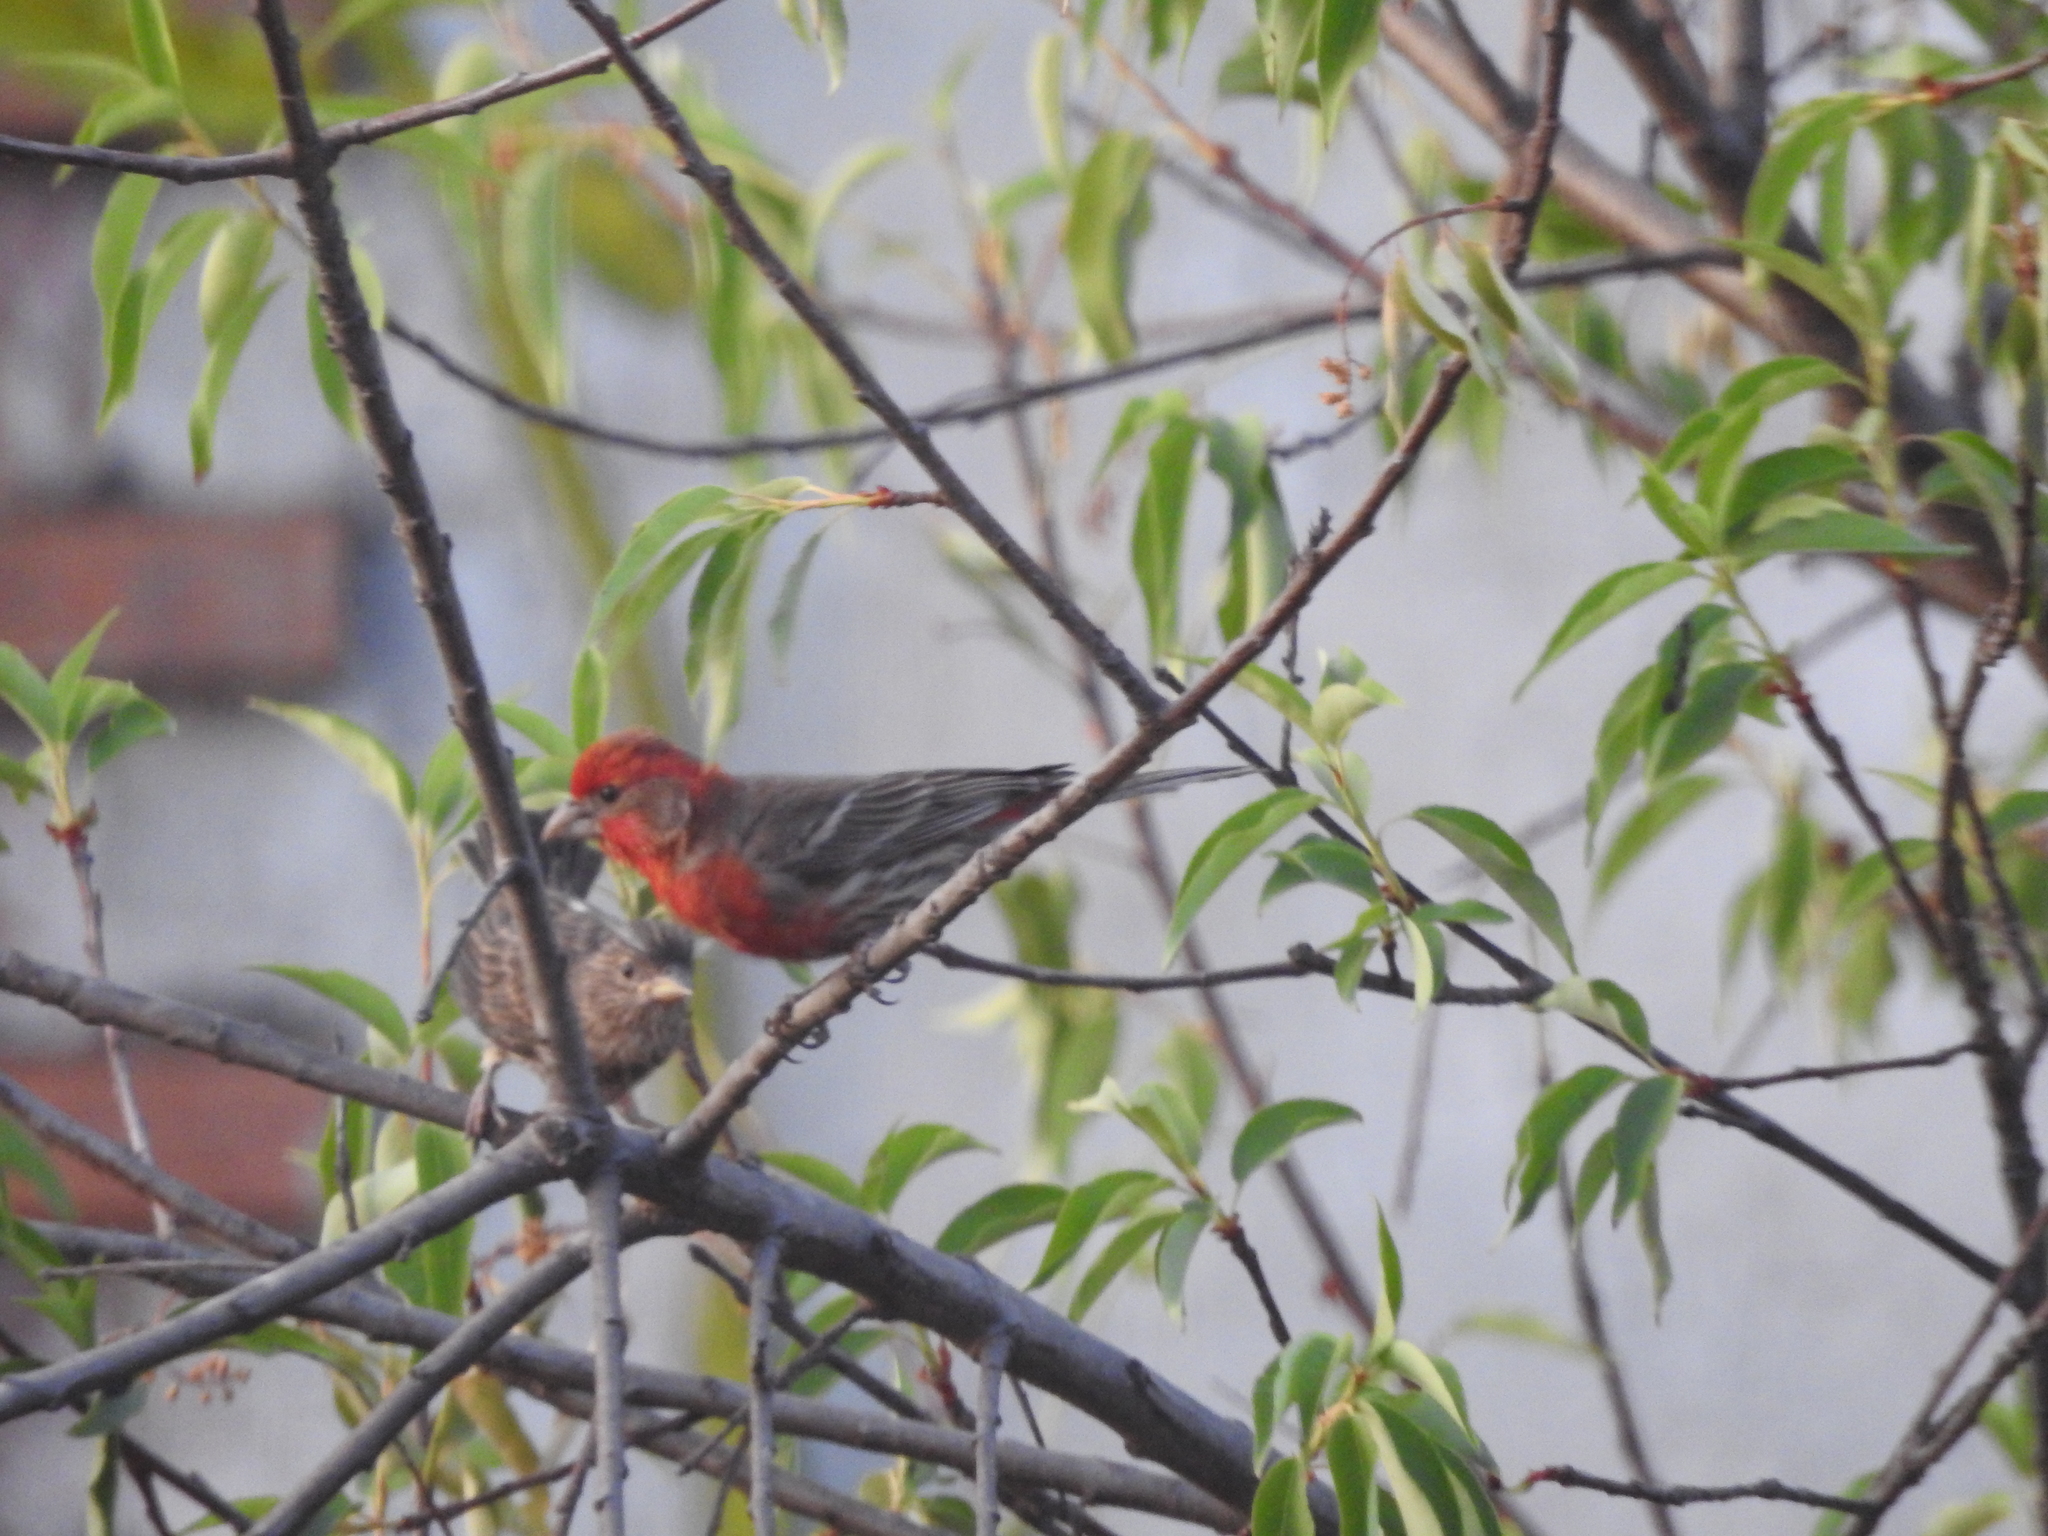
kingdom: Animalia
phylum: Chordata
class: Aves
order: Passeriformes
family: Fringillidae
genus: Haemorhous
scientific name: Haemorhous mexicanus
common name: House finch
